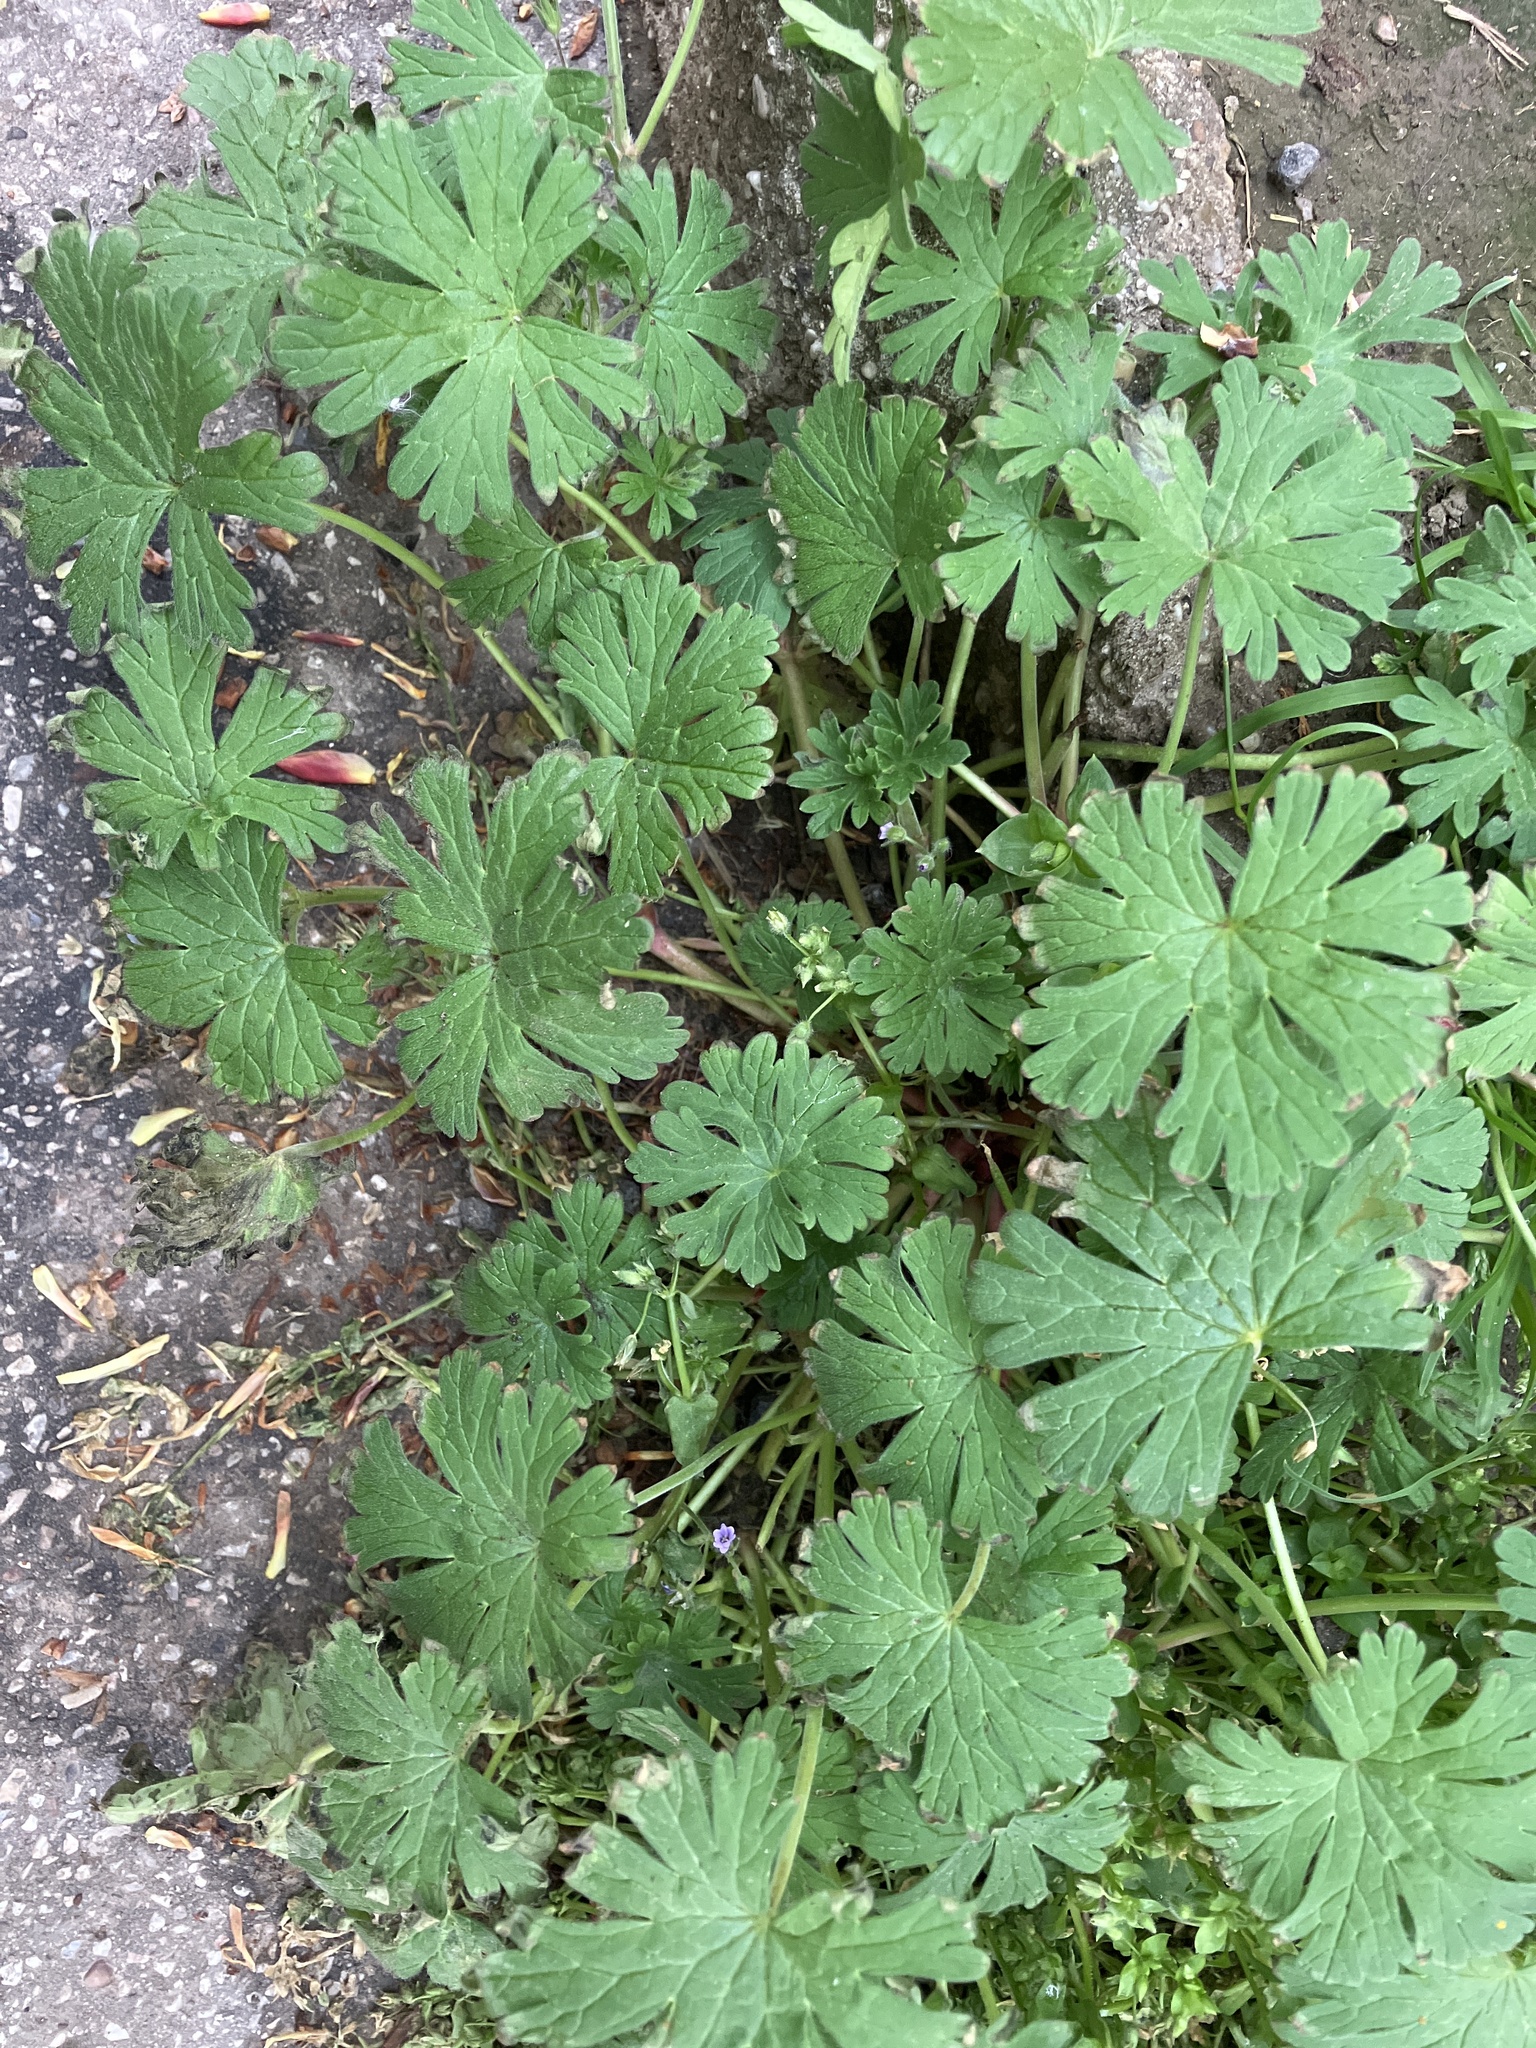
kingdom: Plantae
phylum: Tracheophyta
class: Magnoliopsida
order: Geraniales
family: Geraniaceae
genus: Geranium
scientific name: Geranium pusillum
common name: Small geranium
